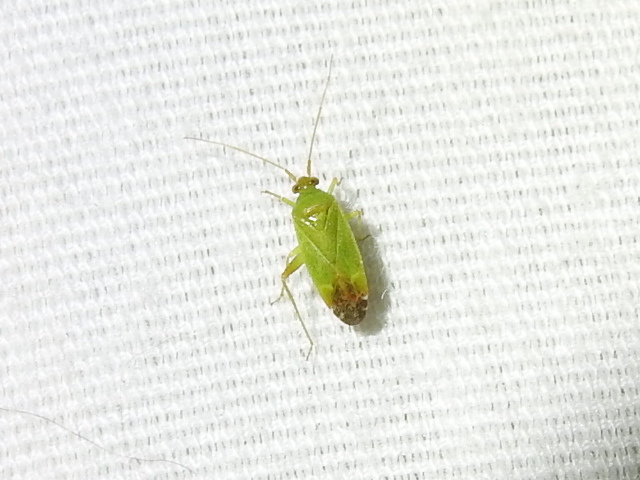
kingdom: Animalia
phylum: Arthropoda
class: Insecta
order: Hemiptera
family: Miridae
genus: Phytocoris
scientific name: Phytocoris vanduzeei
